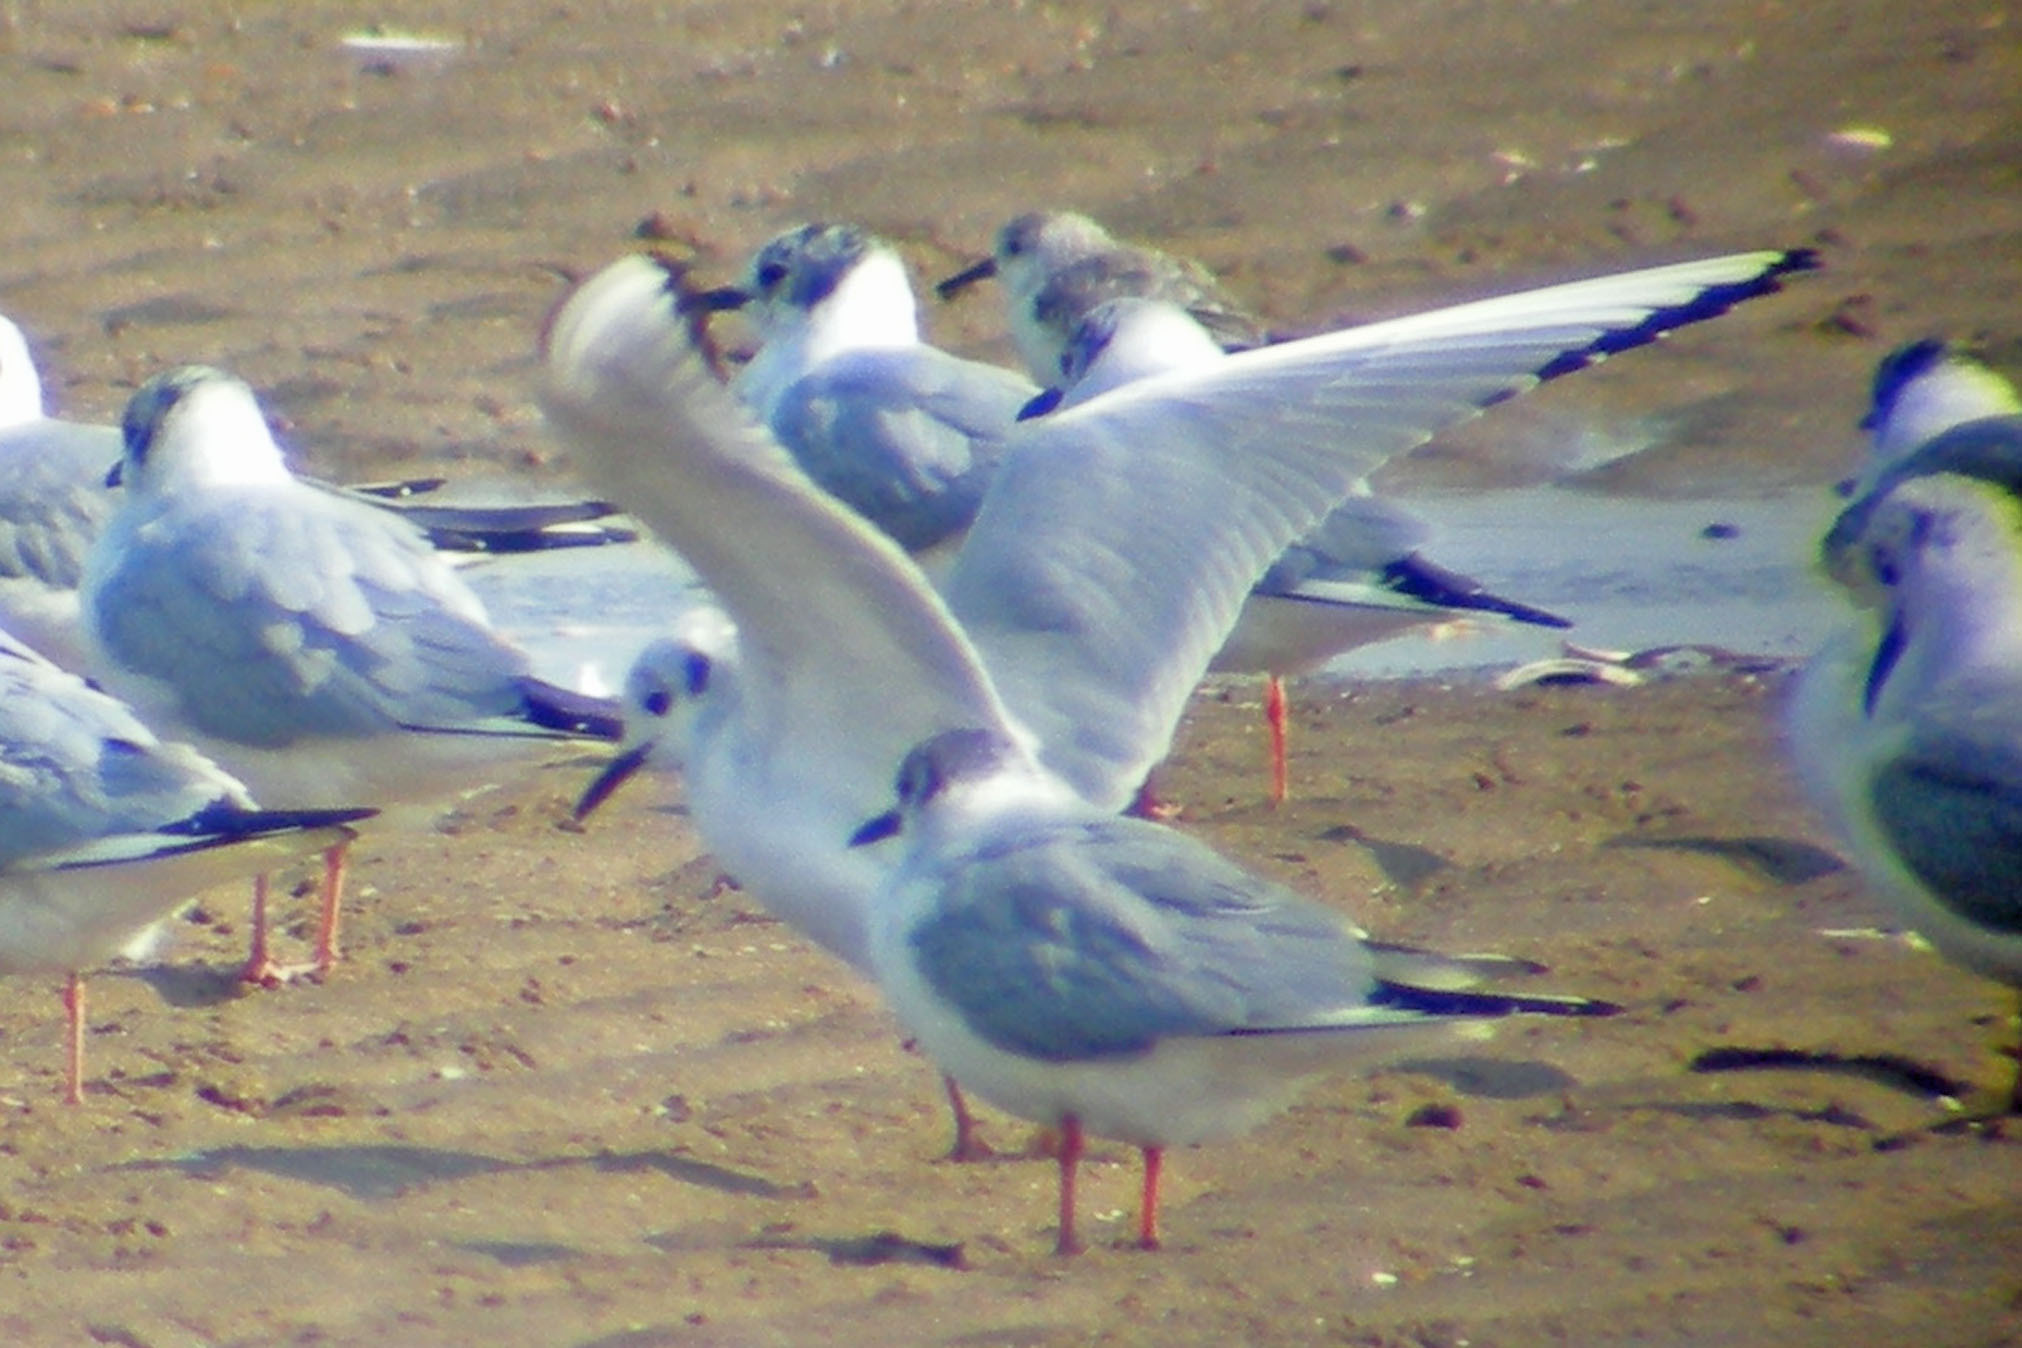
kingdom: Animalia
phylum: Chordata
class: Aves
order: Charadriiformes
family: Laridae
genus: Chroicocephalus
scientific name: Chroicocephalus philadelphia
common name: Bonaparte's gull
